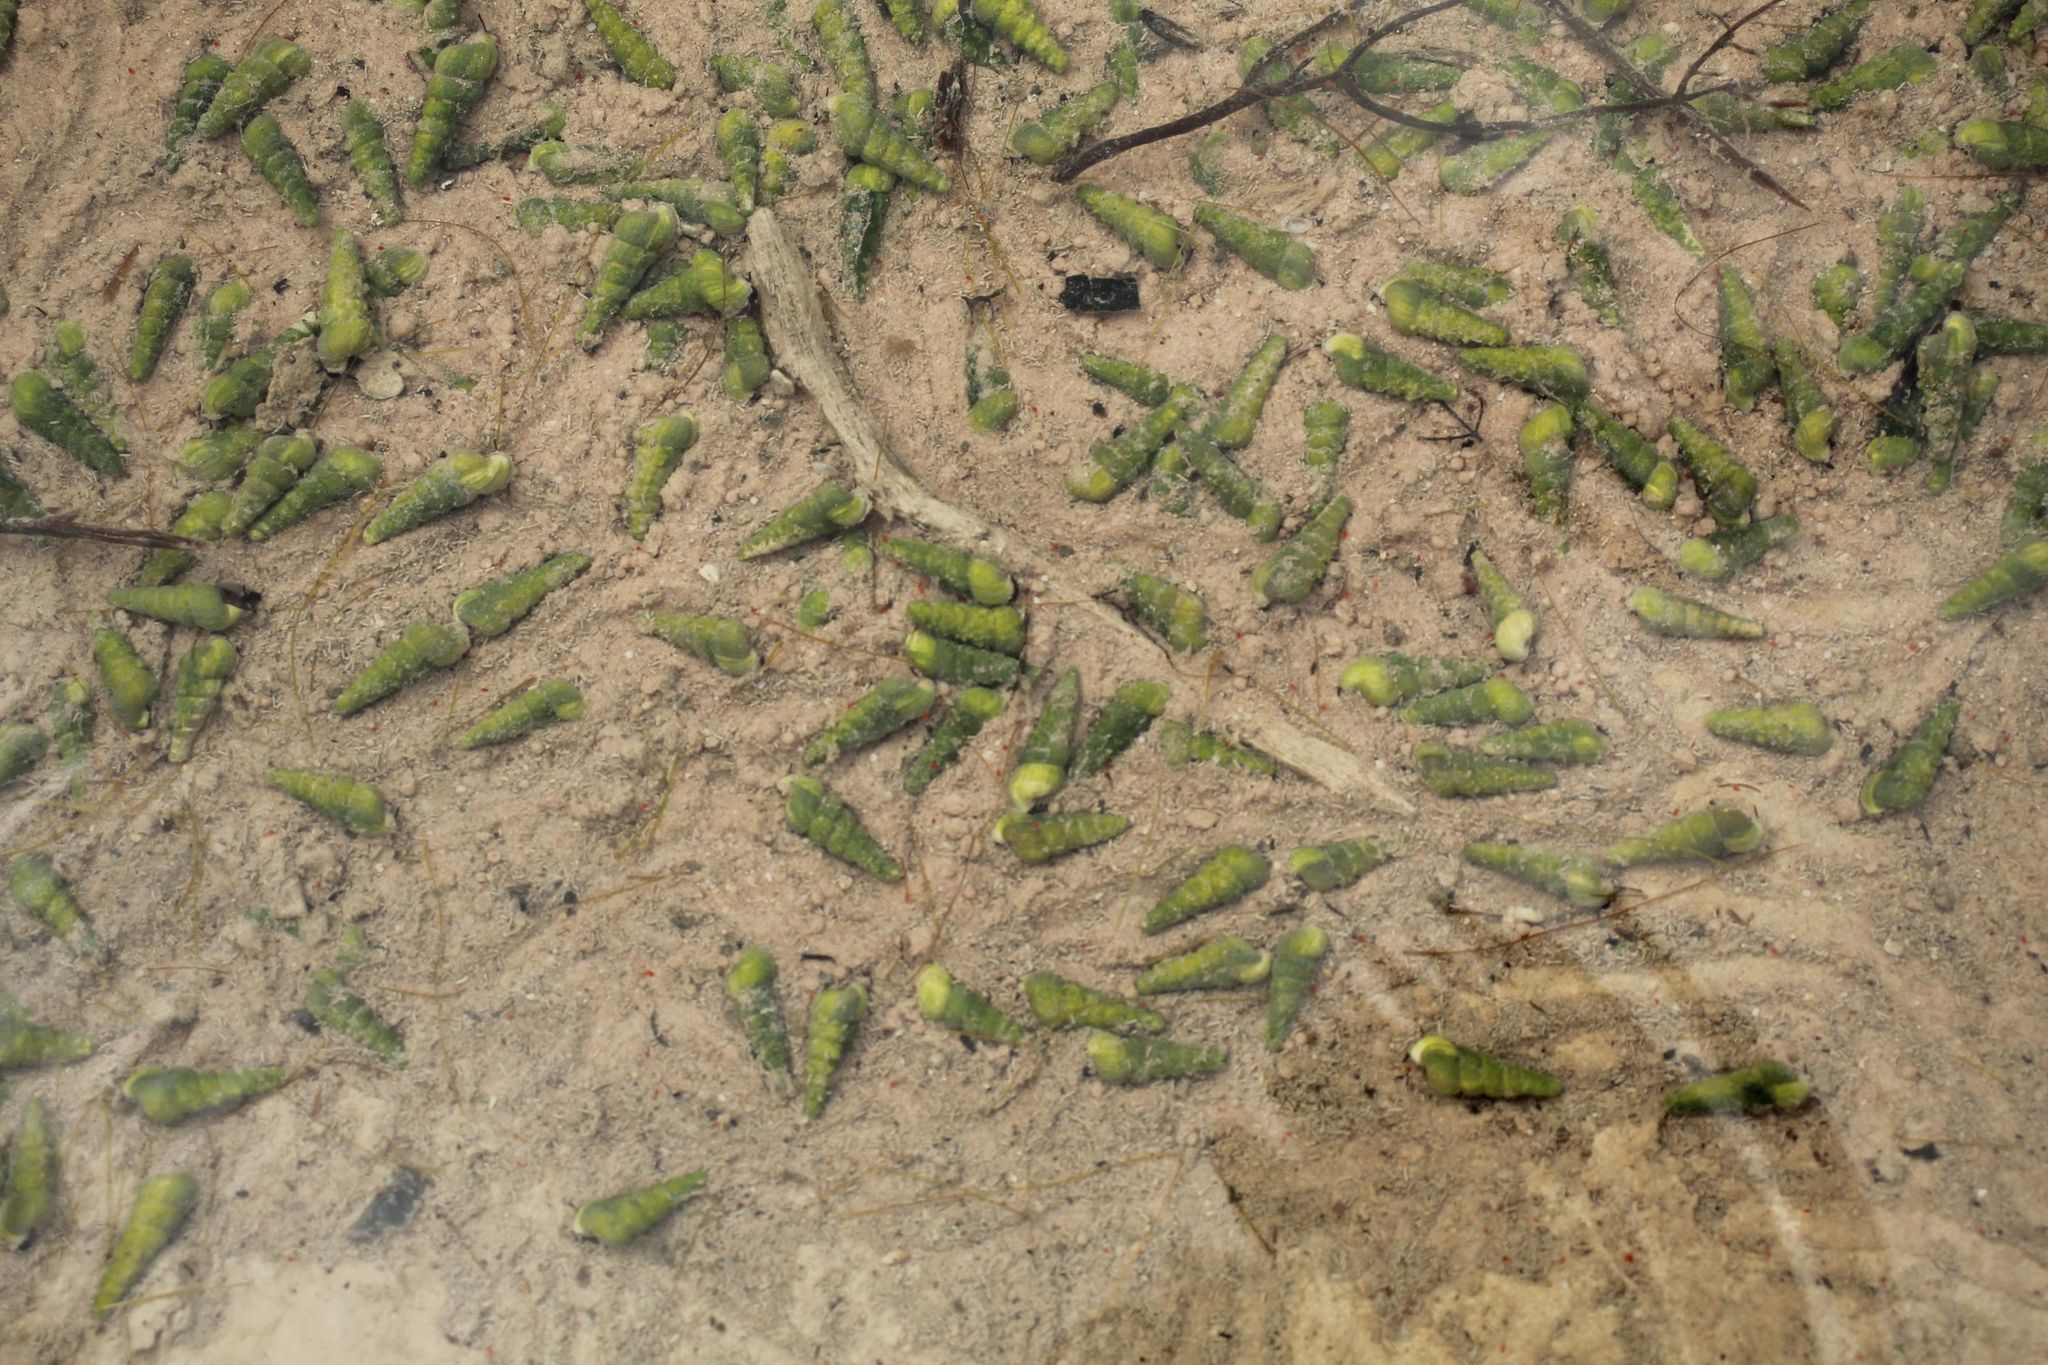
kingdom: Animalia
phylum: Mollusca
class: Gastropoda
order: Littorinimorpha
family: Tomichiidae
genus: Coxiella
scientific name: Coxiella pyrrhostoma
